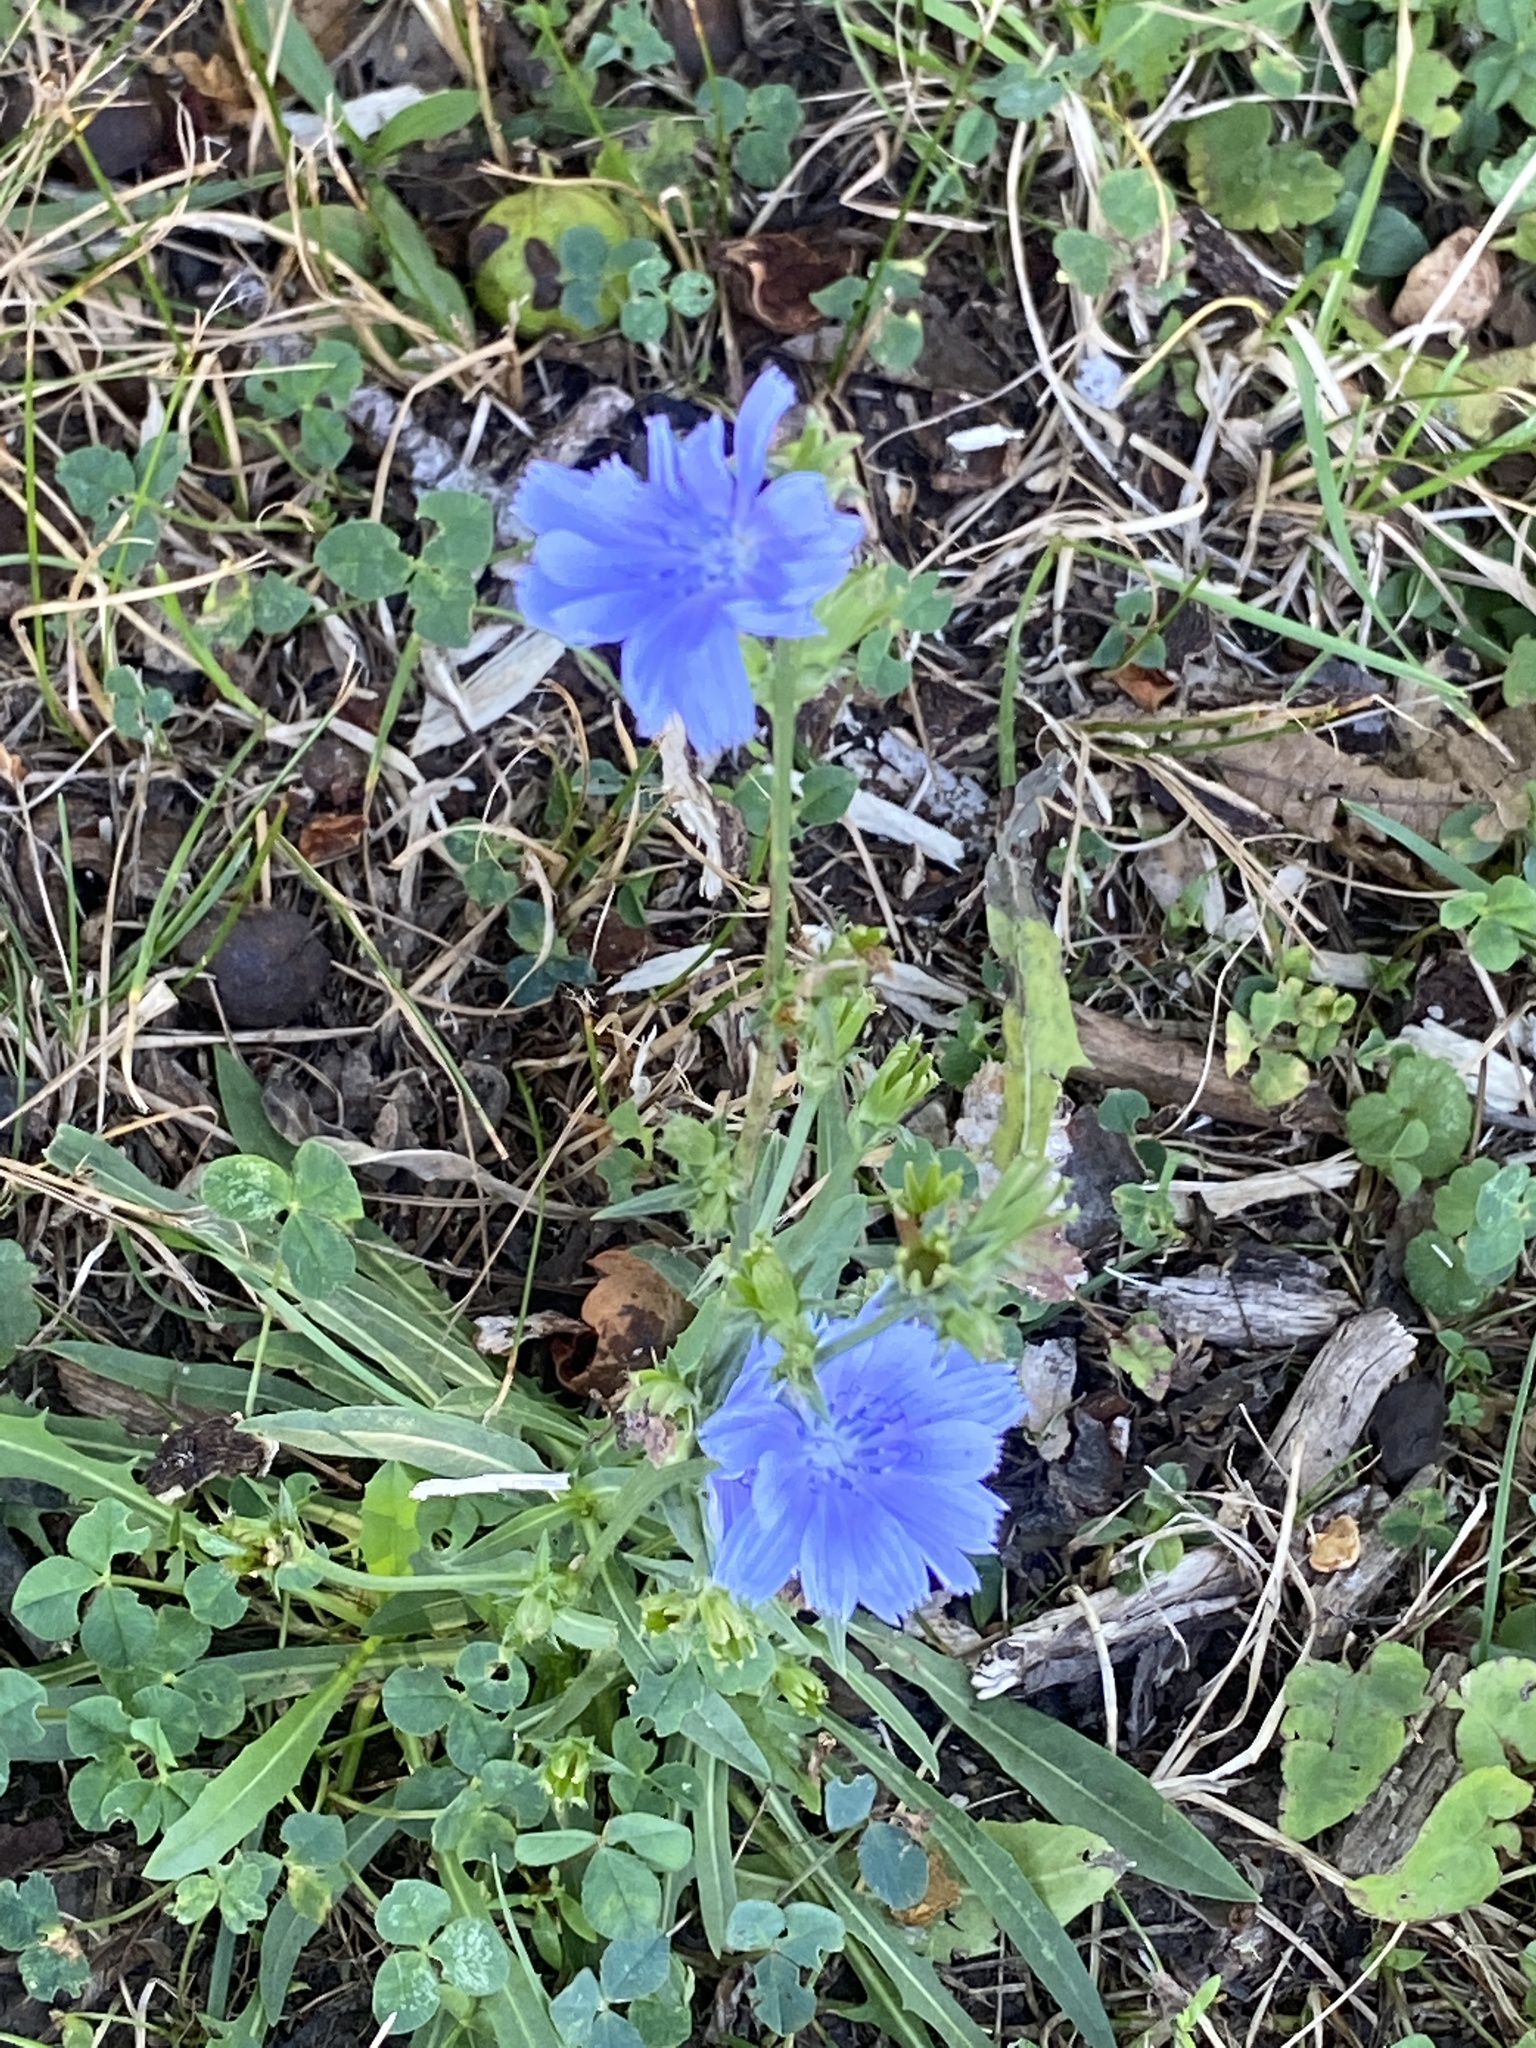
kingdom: Plantae
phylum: Tracheophyta
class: Magnoliopsida
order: Asterales
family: Asteraceae
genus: Cichorium
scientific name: Cichorium intybus
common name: Chicory
